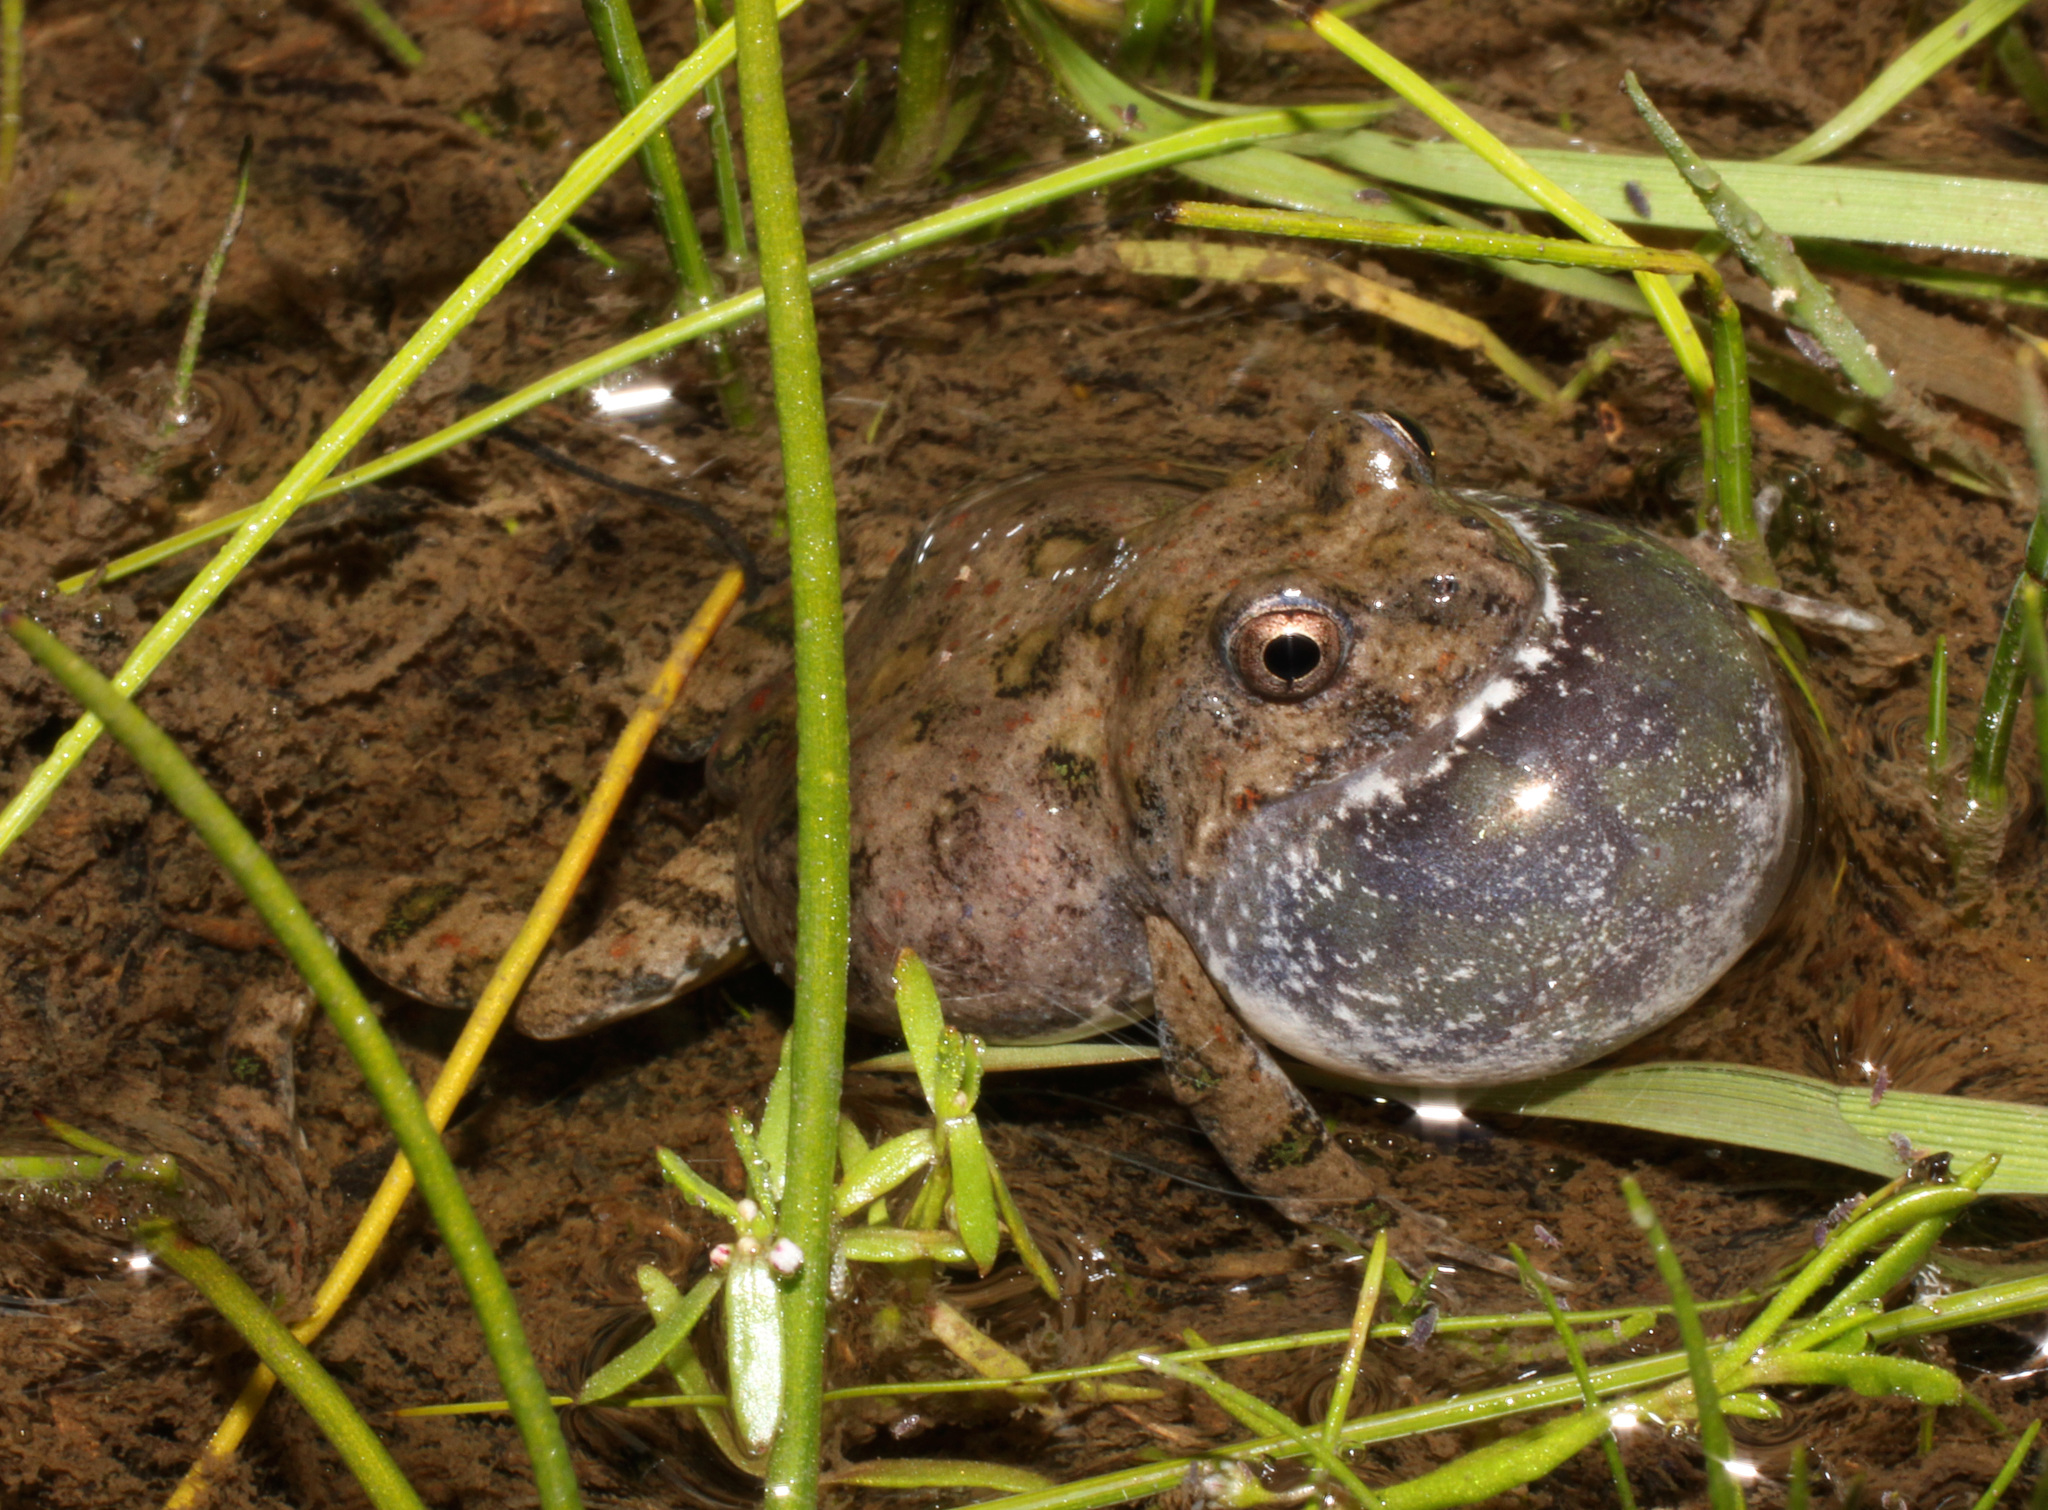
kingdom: Animalia
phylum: Chordata
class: Amphibia
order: Anura
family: Pyxicephalidae
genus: Cacosternum
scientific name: Cacosternum capense
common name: Cape dainty frog
